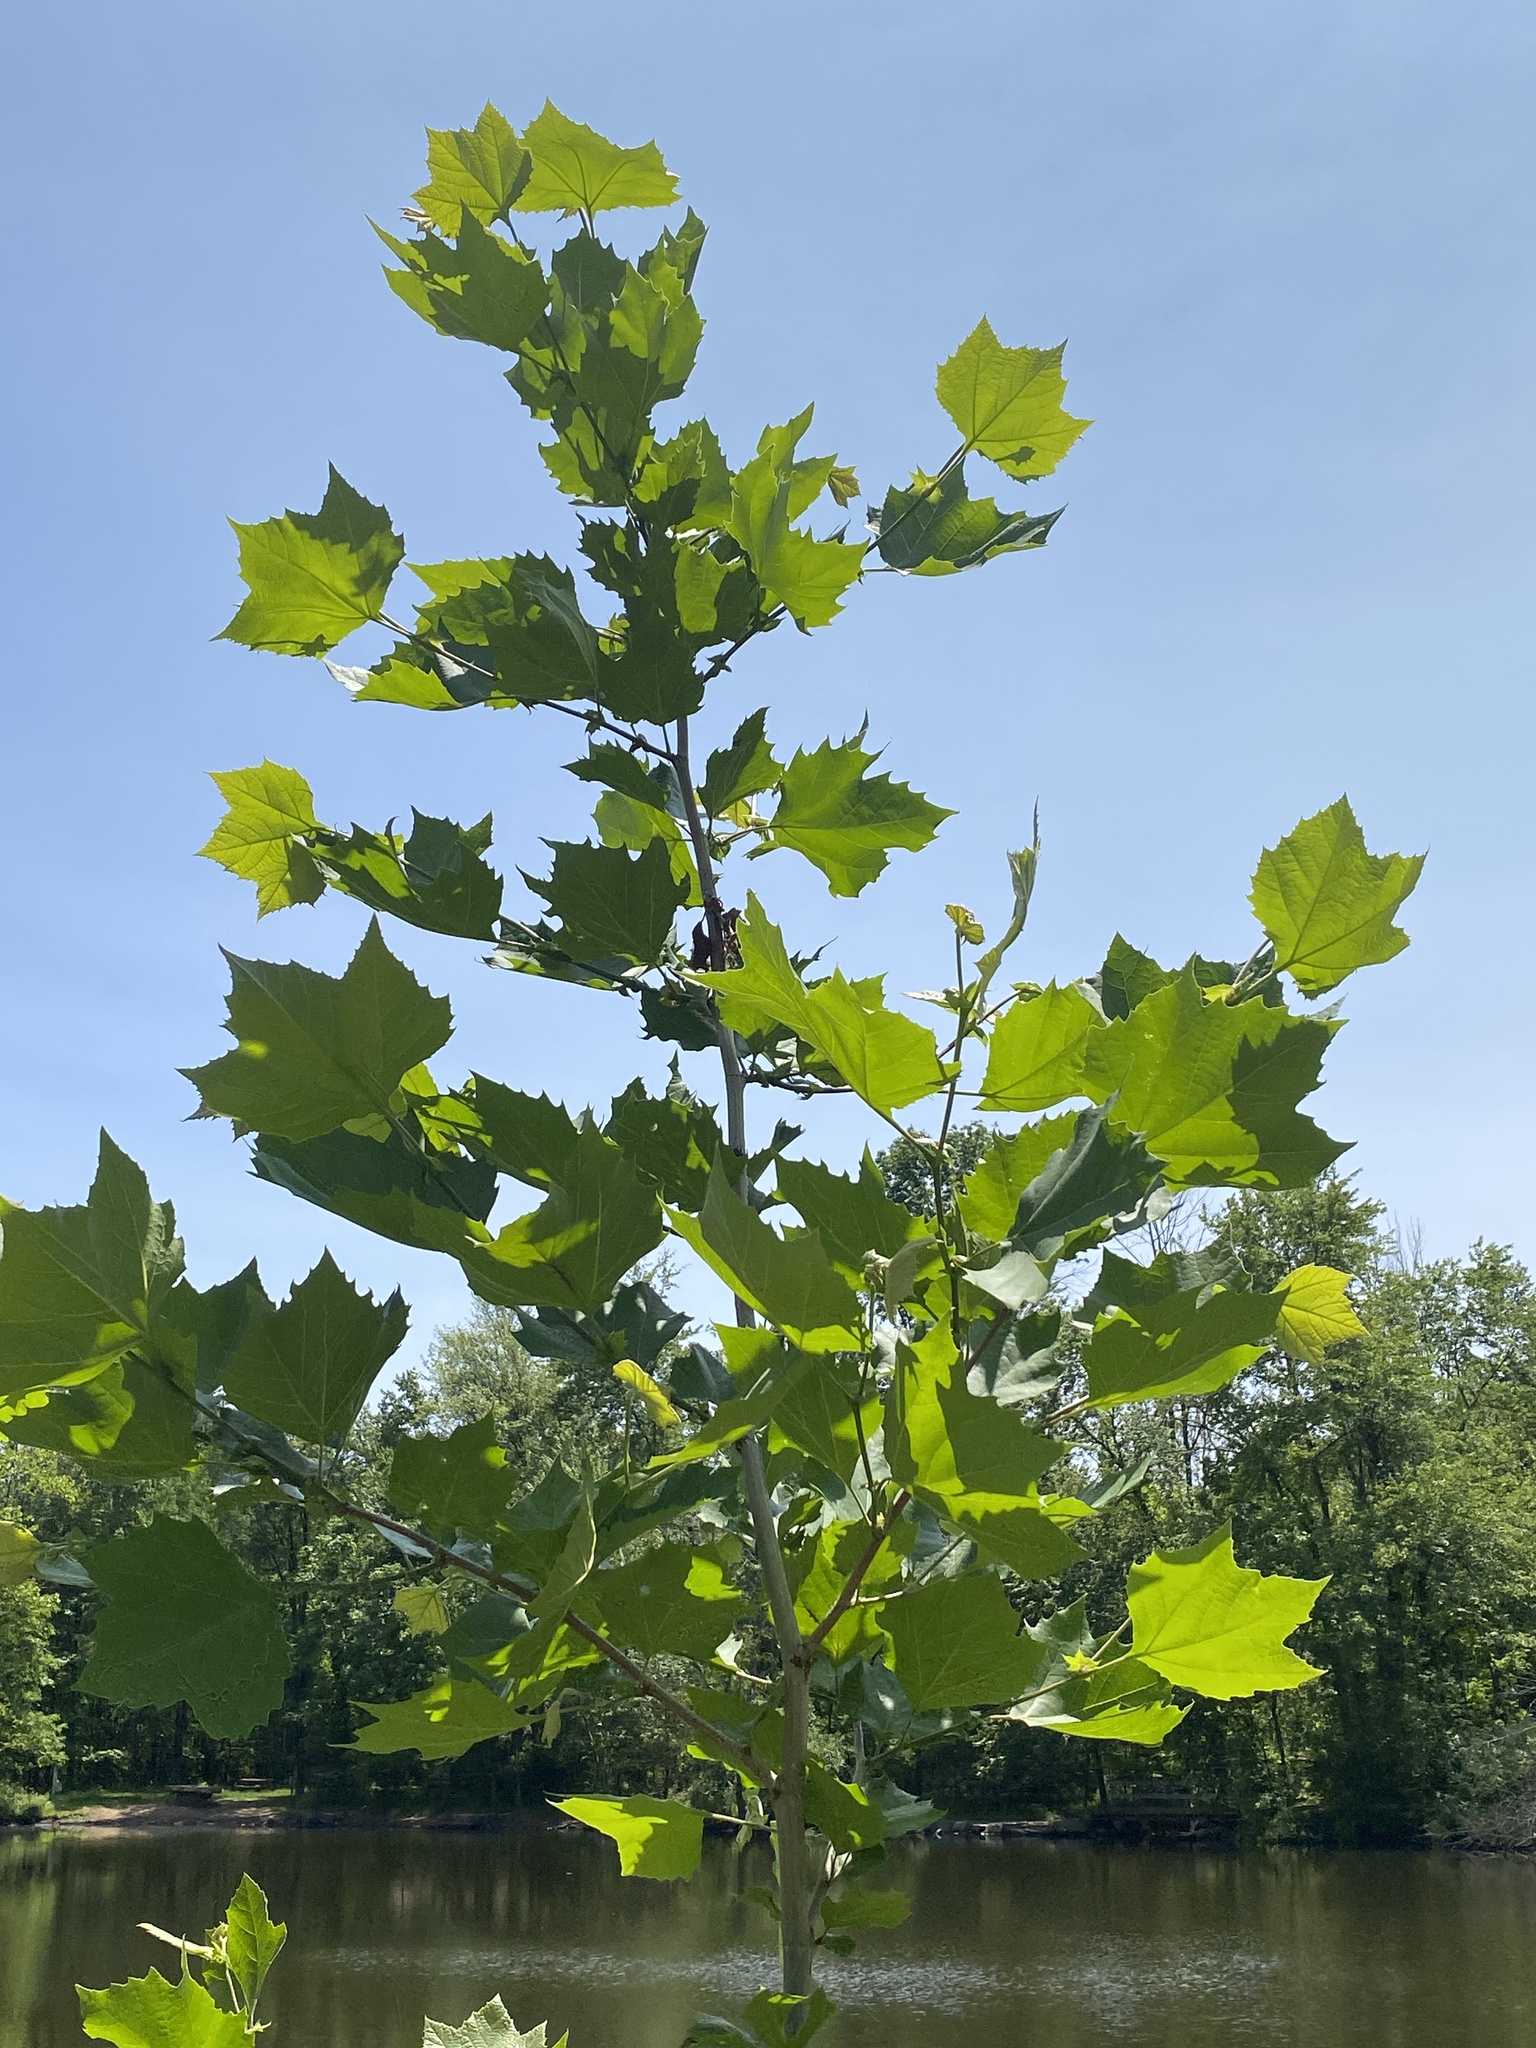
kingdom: Plantae
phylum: Tracheophyta
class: Magnoliopsida
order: Proteales
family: Platanaceae
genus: Platanus
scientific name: Platanus occidentalis
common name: American sycamore
